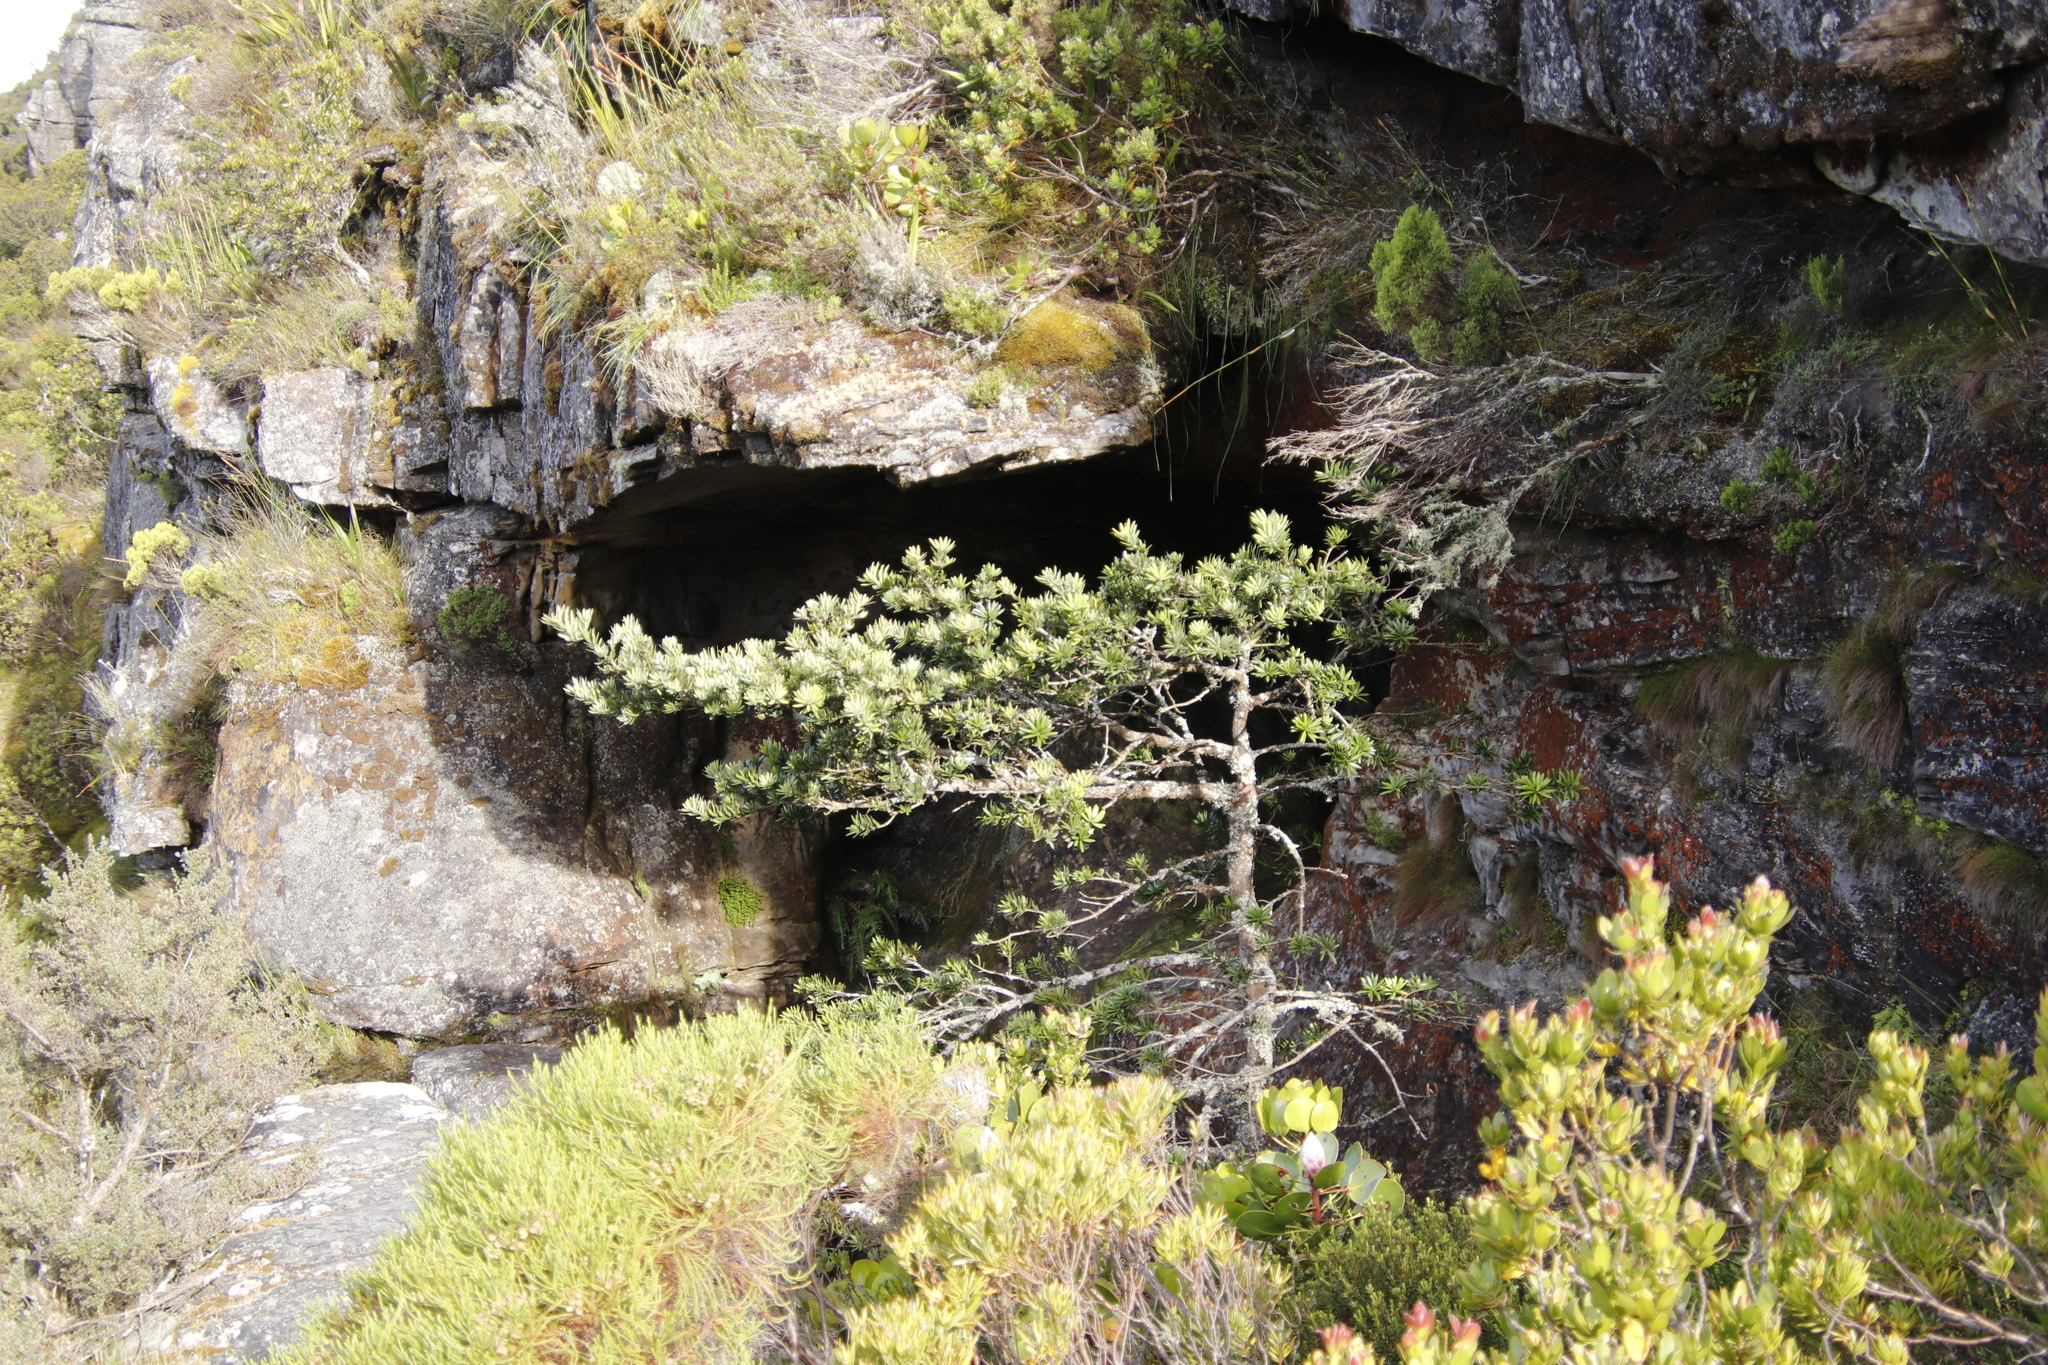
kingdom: Plantae
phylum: Tracheophyta
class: Pinopsida
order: Pinales
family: Podocarpaceae
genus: Podocarpus
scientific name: Podocarpus latifolius
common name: True yellowwood
